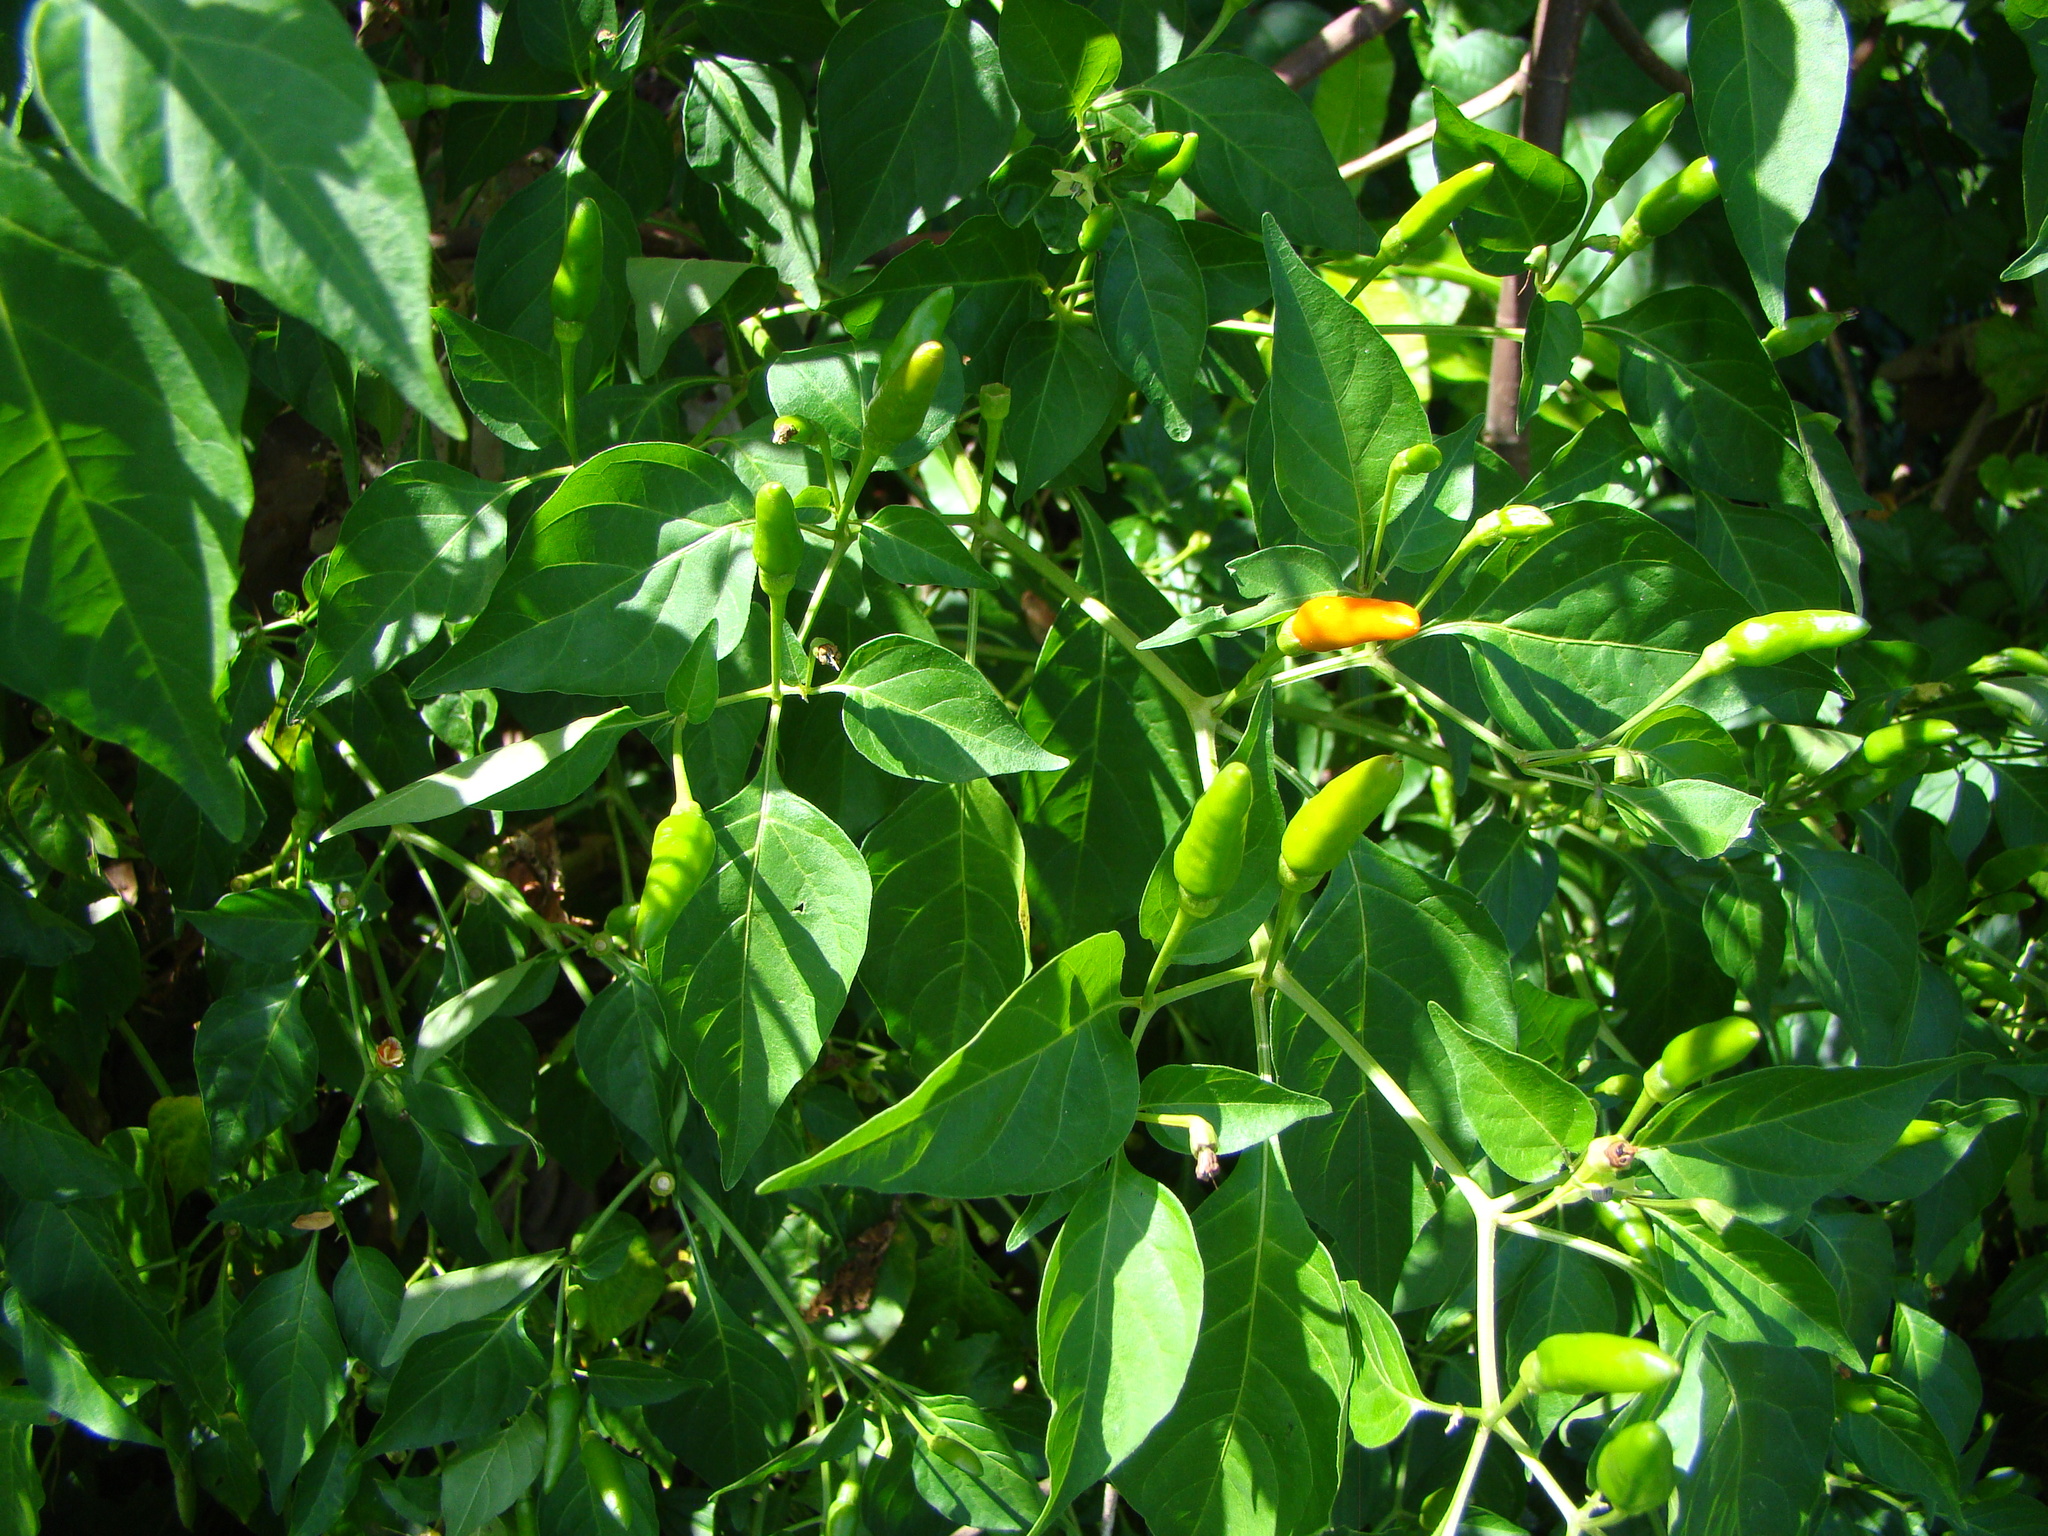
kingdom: Plantae
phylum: Tracheophyta
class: Magnoliopsida
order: Solanales
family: Solanaceae
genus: Capsicum
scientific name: Capsicum annuum
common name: Sweet pepper
